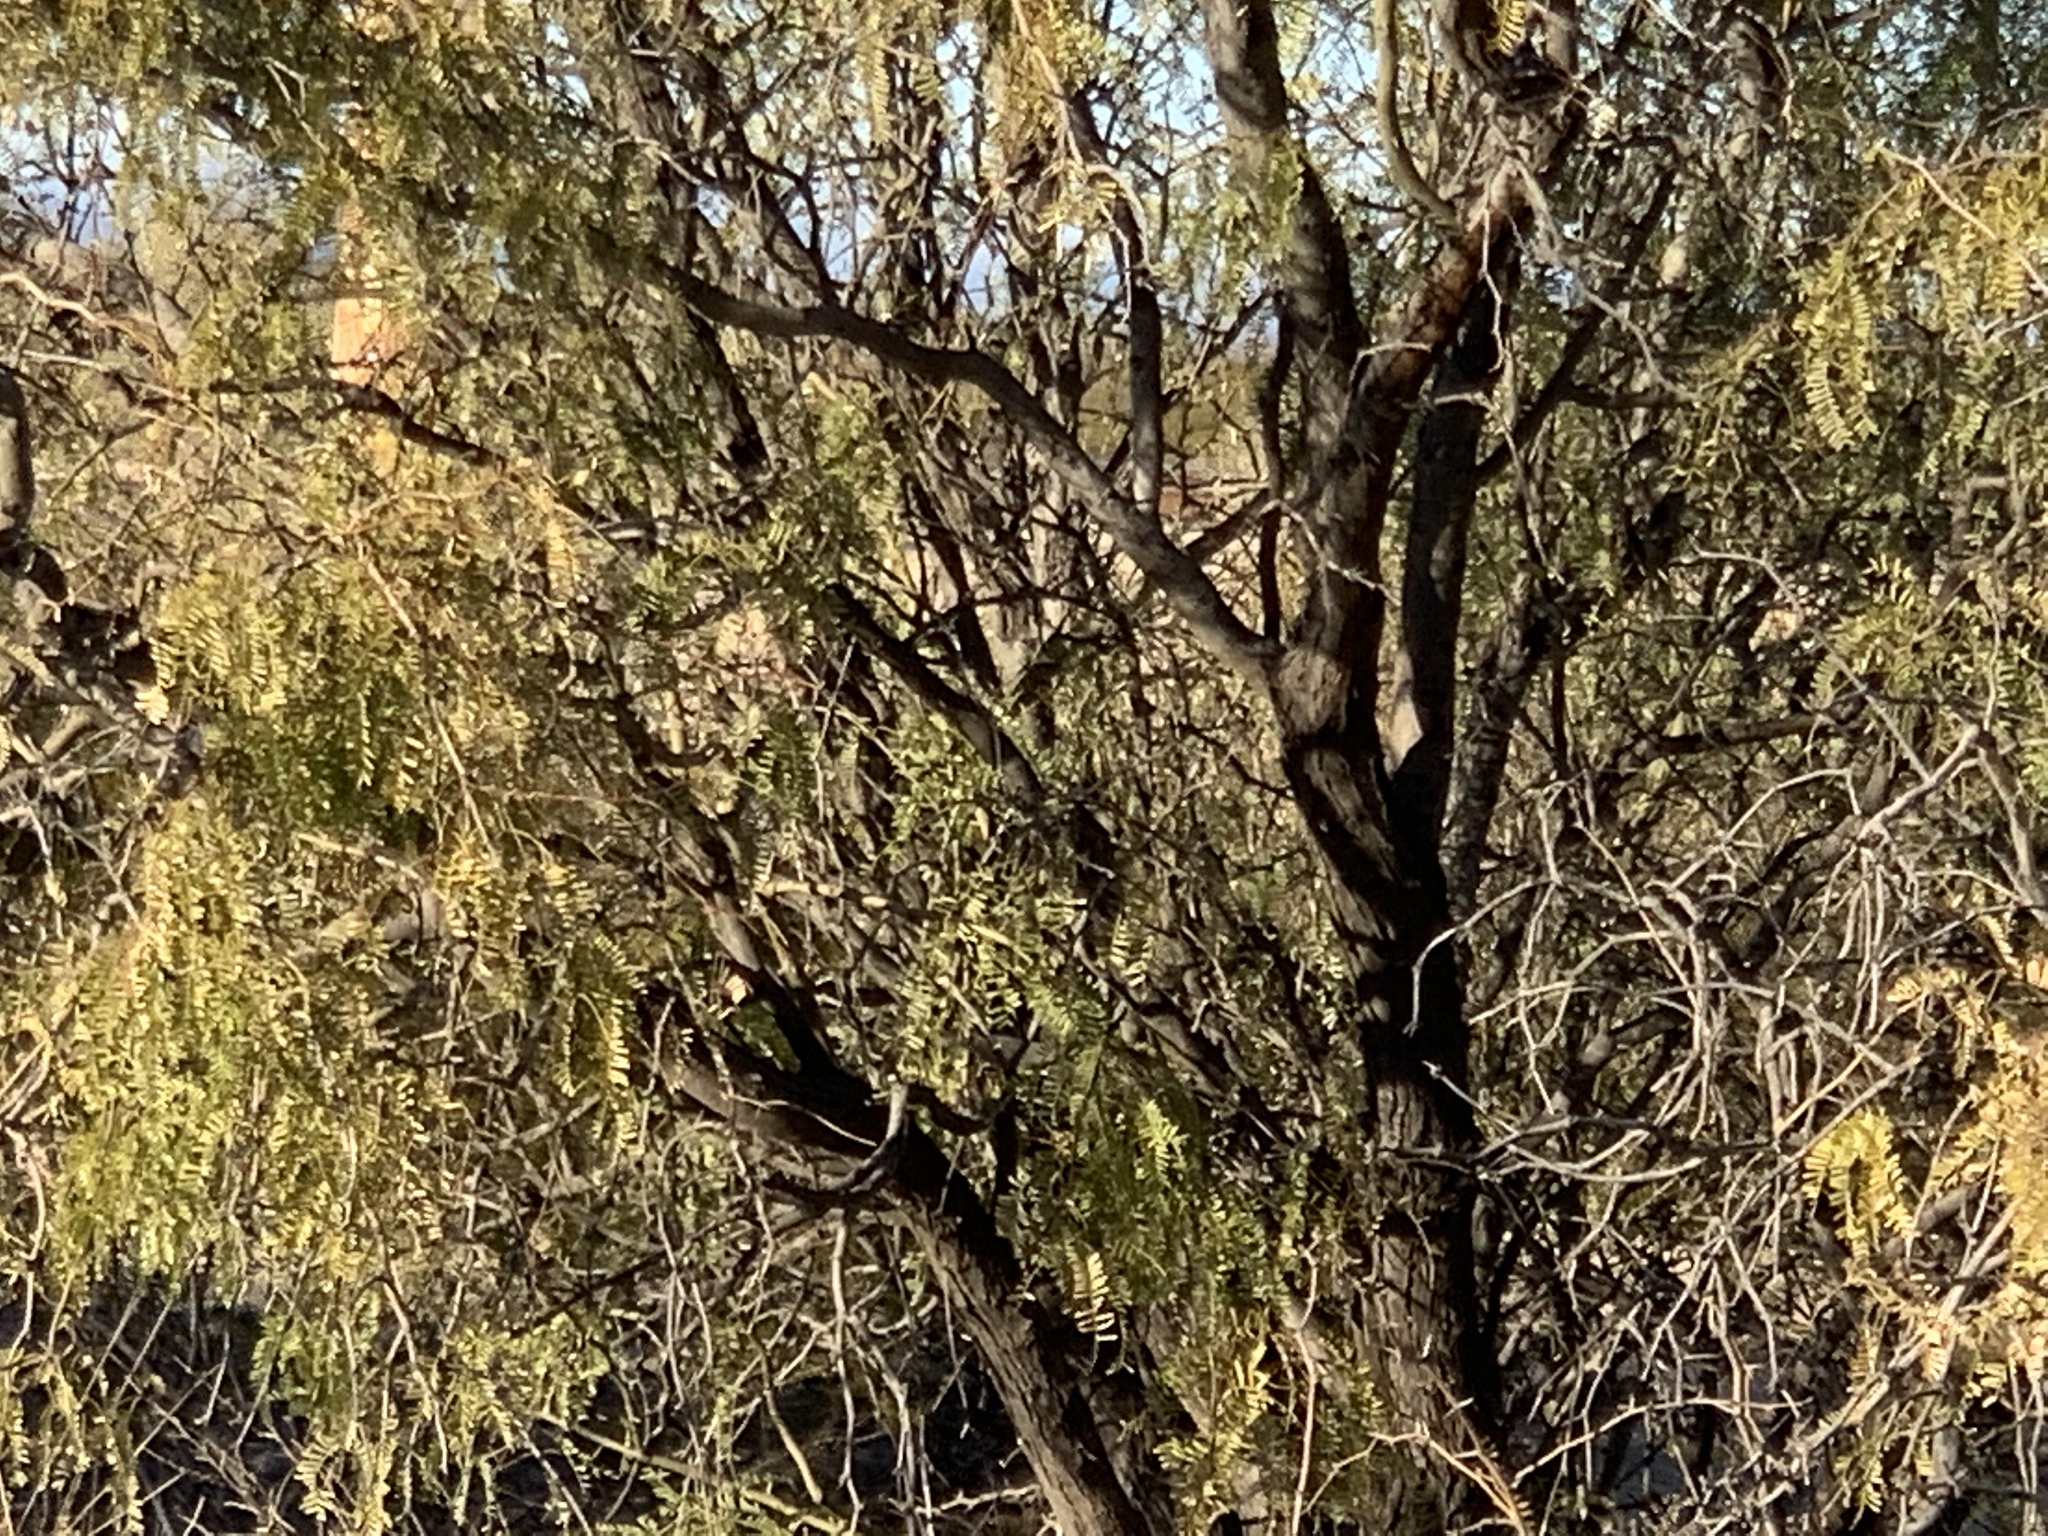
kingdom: Plantae
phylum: Tracheophyta
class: Magnoliopsida
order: Fabales
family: Fabaceae
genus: Prosopis
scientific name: Prosopis velutina
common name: Velvet mesquite
